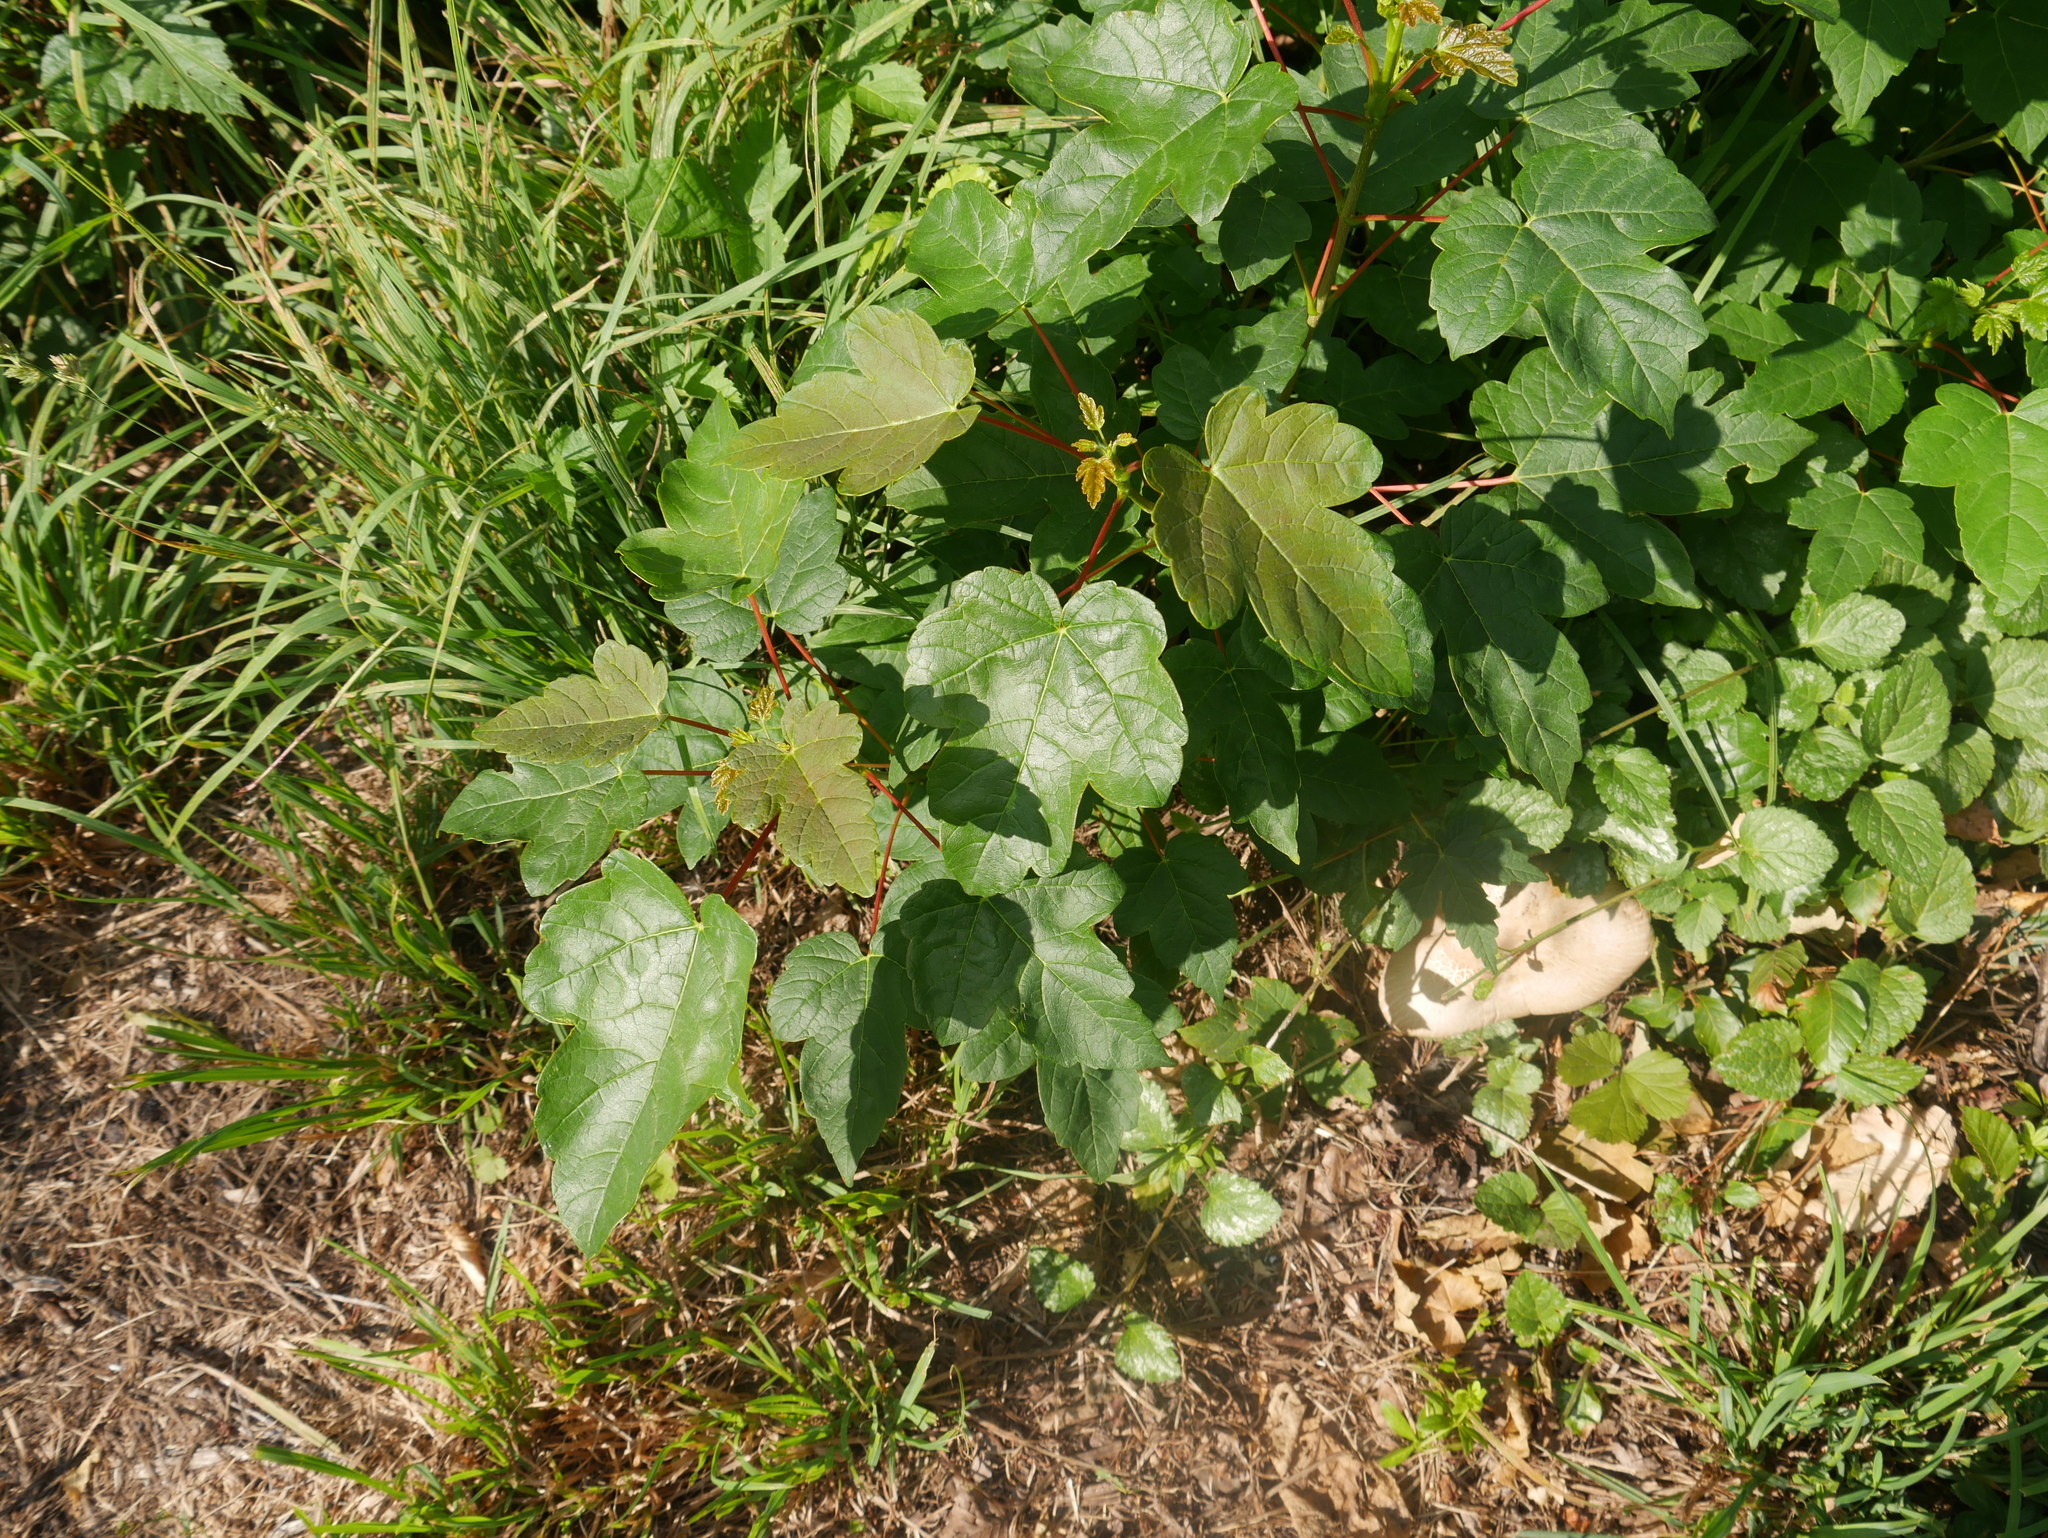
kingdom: Plantae
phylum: Tracheophyta
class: Magnoliopsida
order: Sapindales
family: Sapindaceae
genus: Acer
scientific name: Acer pseudoplatanus
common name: Sycamore
